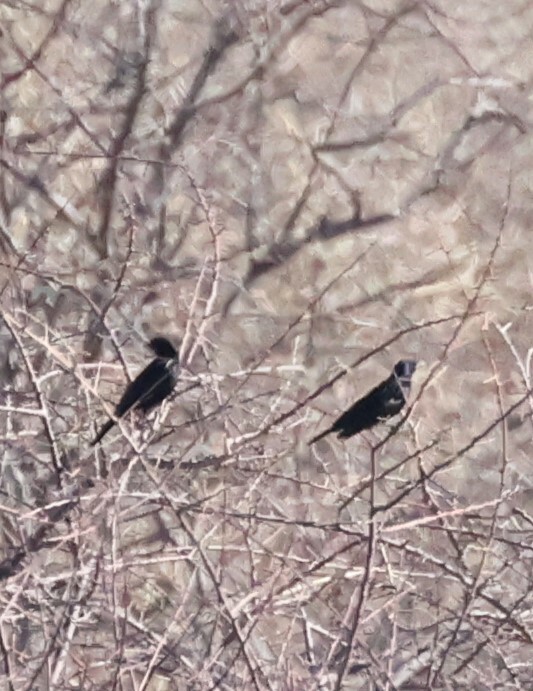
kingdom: Animalia
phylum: Chordata
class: Aves
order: Passeriformes
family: Sturnidae
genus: Onychognathus
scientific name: Onychognathus nabouroup
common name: Pale-winged starling
